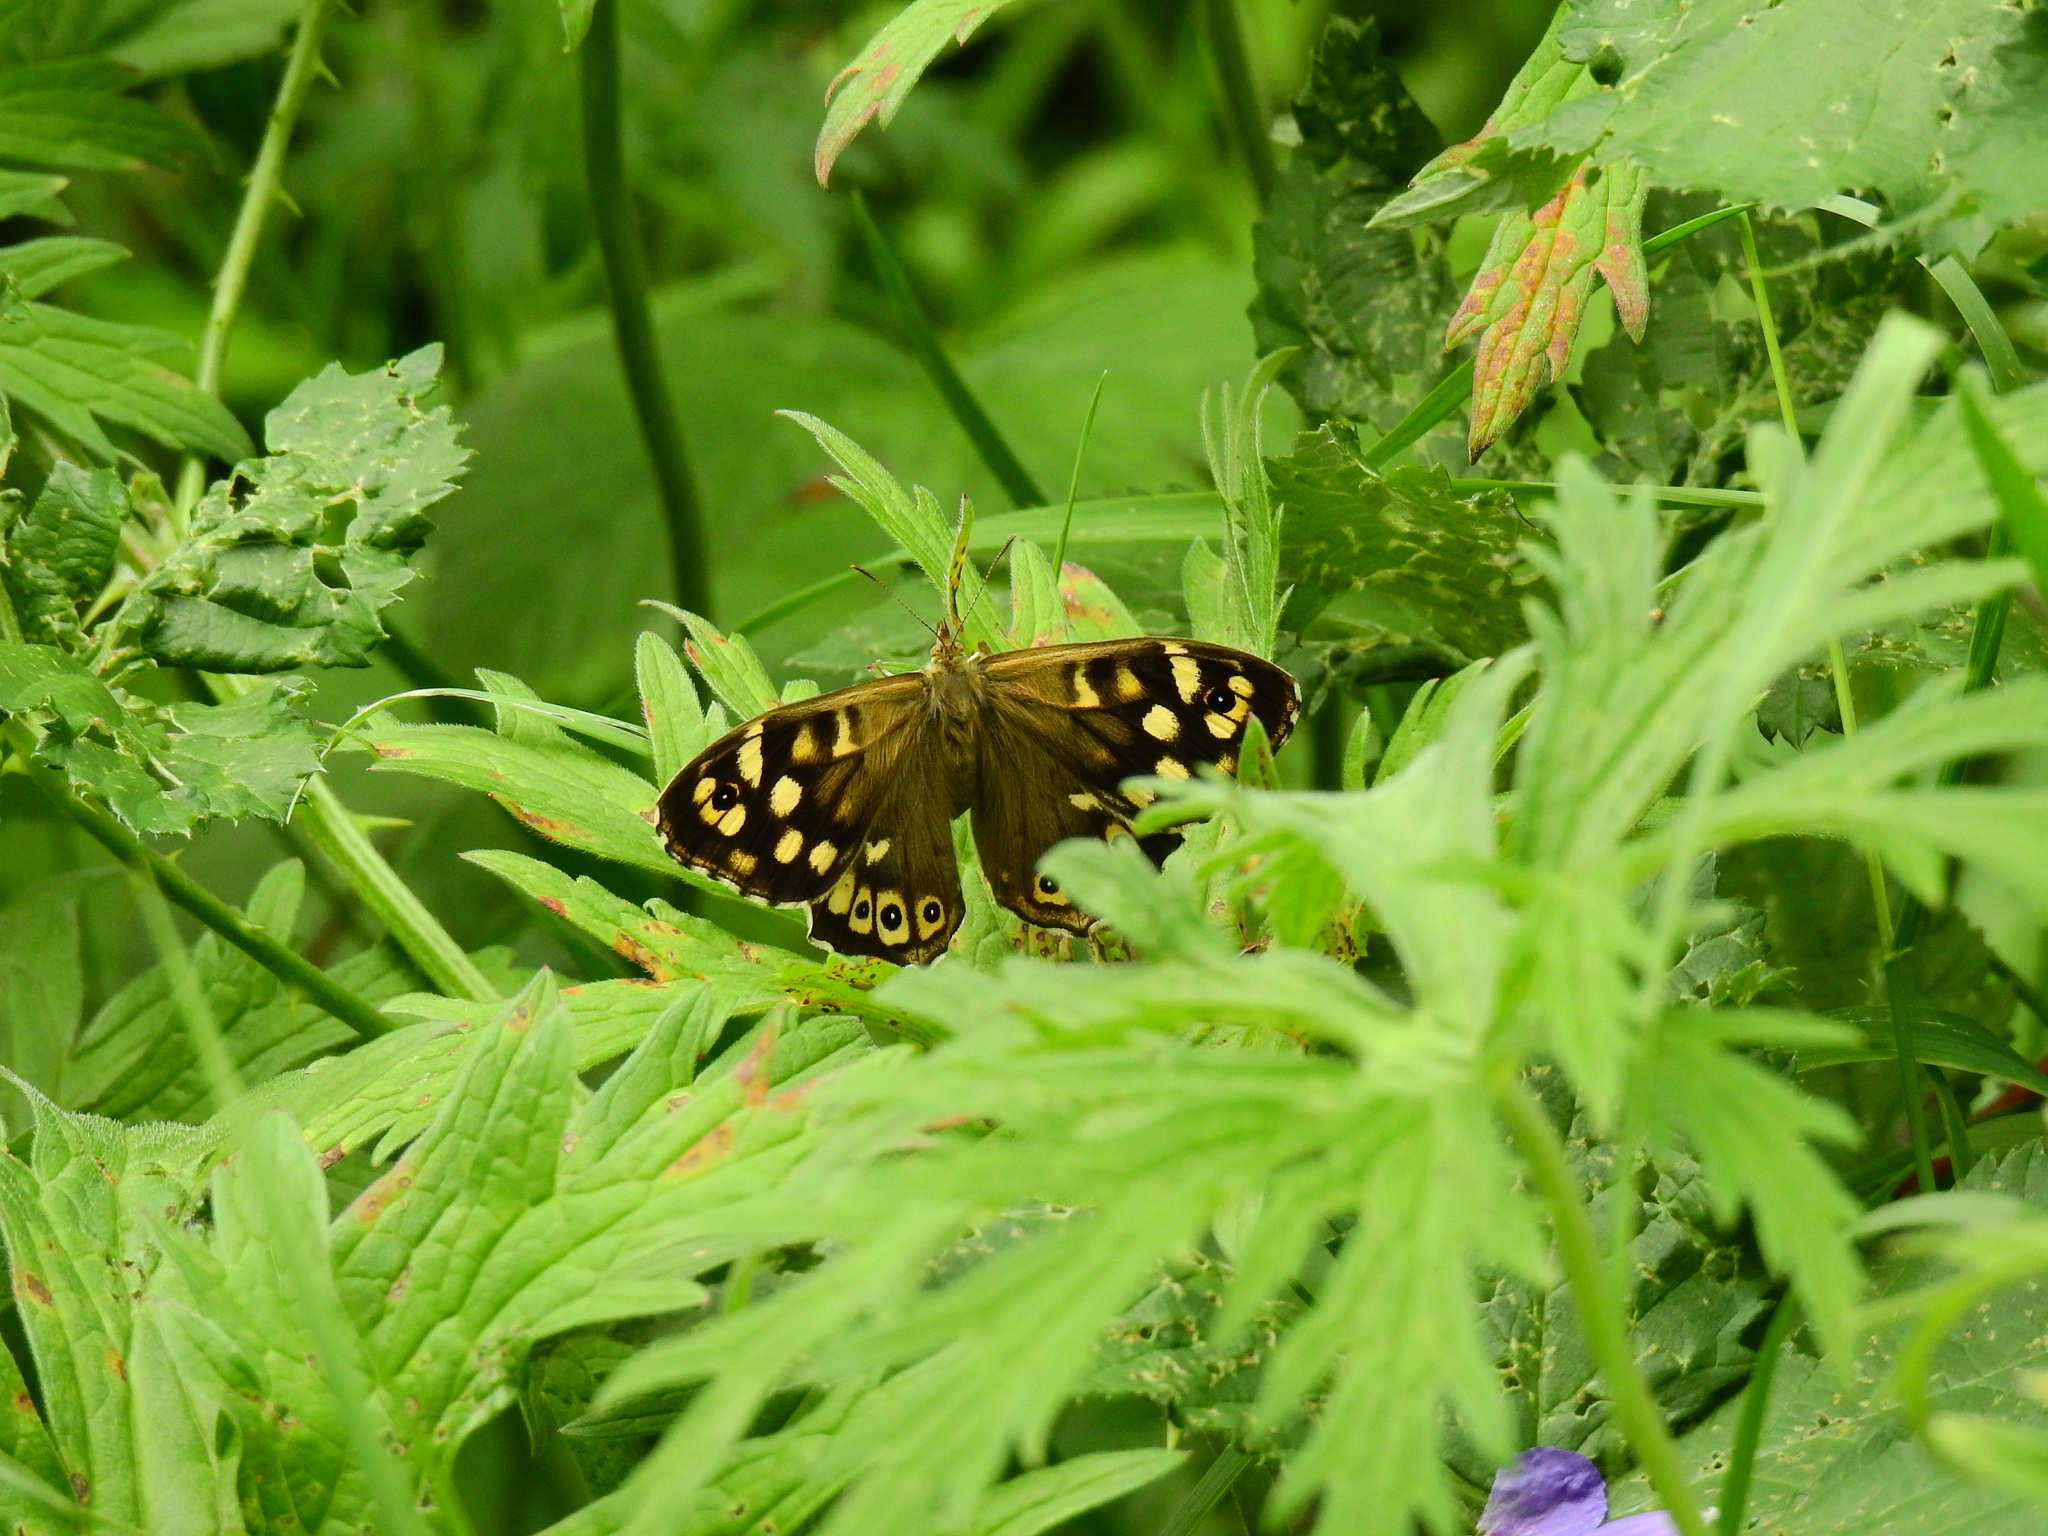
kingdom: Animalia
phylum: Arthropoda
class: Insecta
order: Lepidoptera
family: Nymphalidae
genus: Pararge
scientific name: Pararge aegeria
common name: Speckled wood
